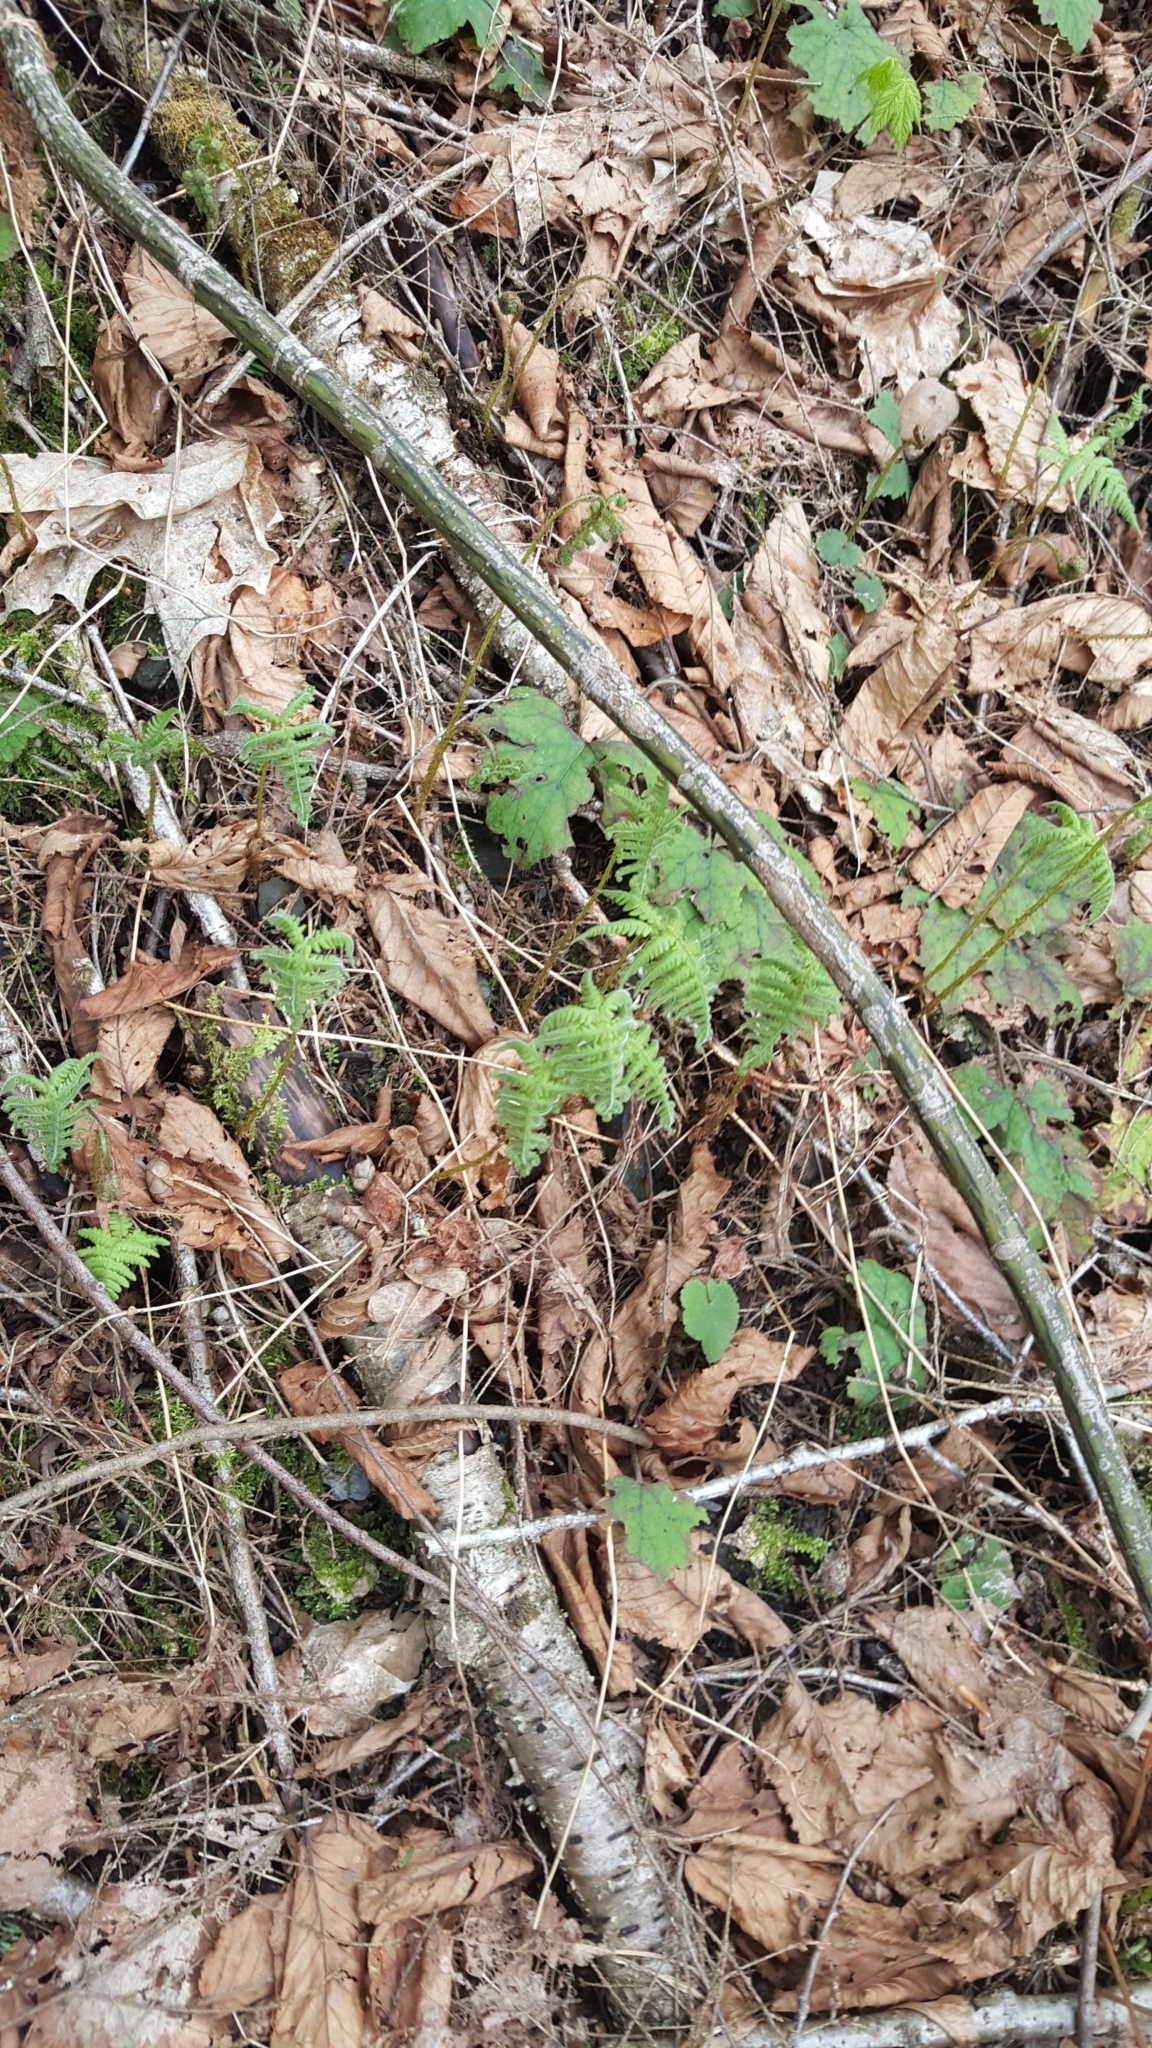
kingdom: Plantae
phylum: Tracheophyta
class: Polypodiopsida
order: Polypodiales
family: Thelypteridaceae
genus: Phegopteris
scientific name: Phegopteris connectilis
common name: Beech fern
